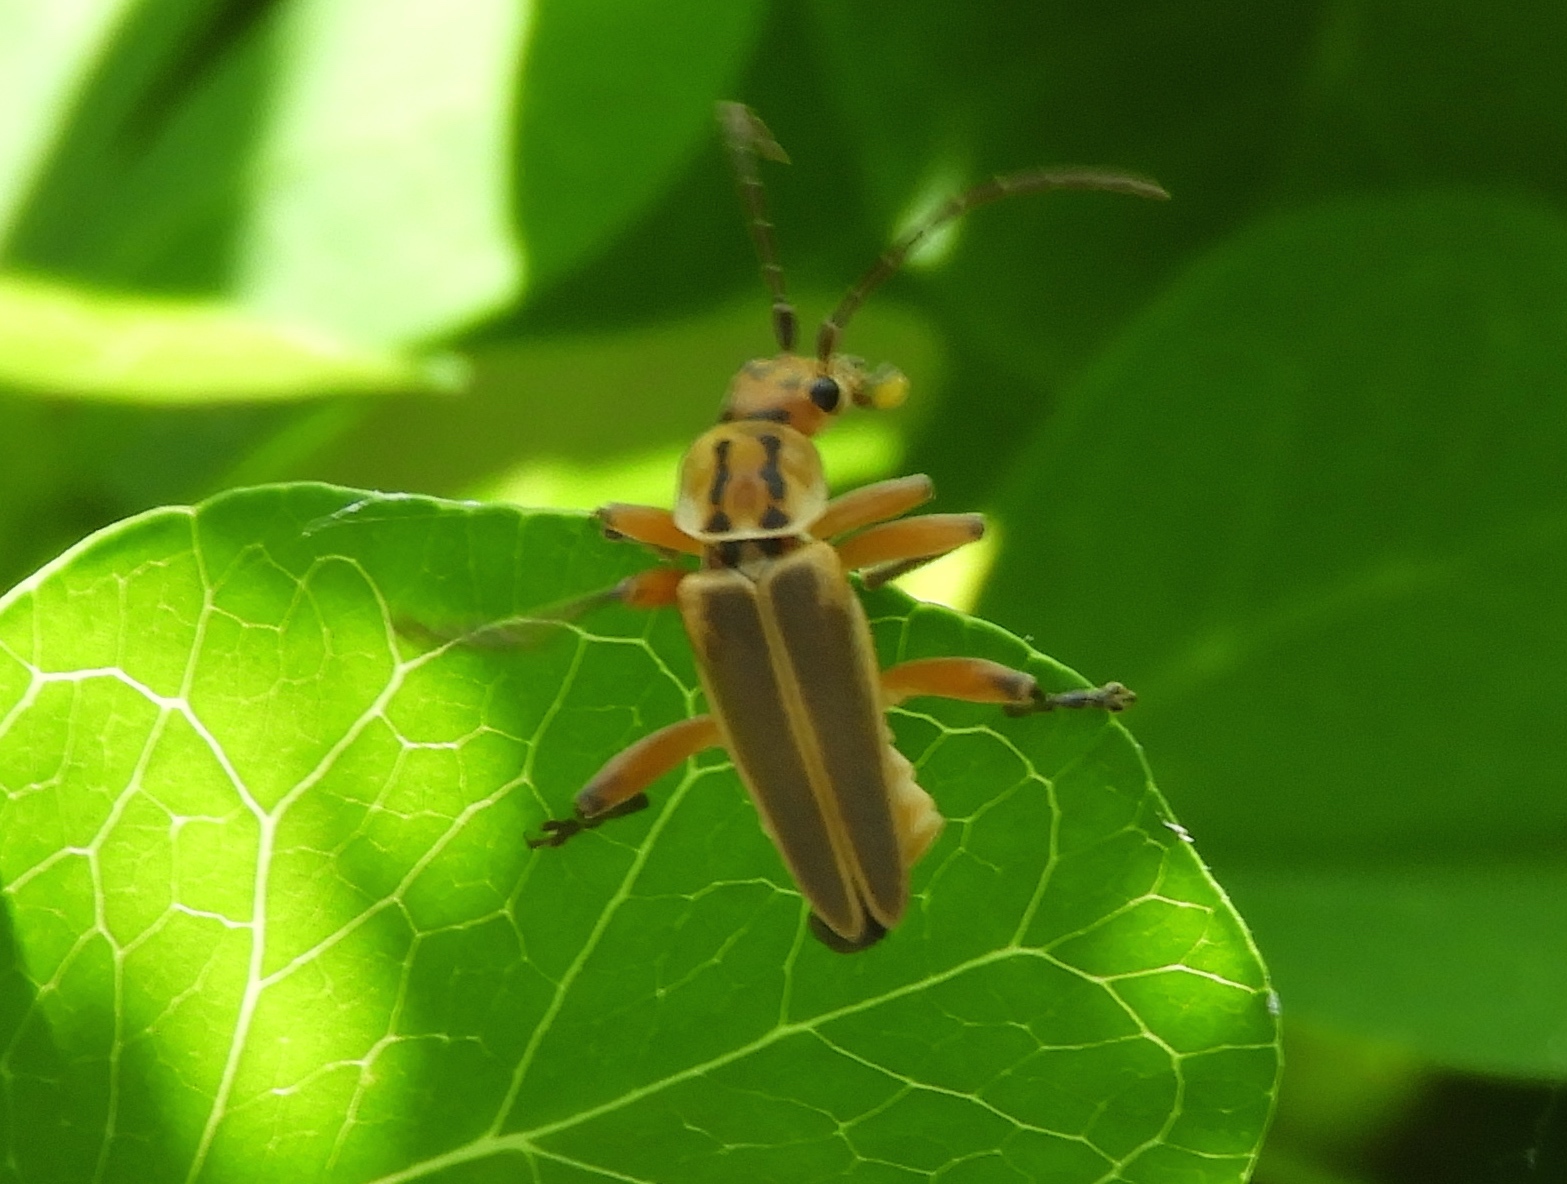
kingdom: Animalia
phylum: Arthropoda
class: Insecta
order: Coleoptera
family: Cantharidae
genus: Chauliognathus
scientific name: Chauliognathus
